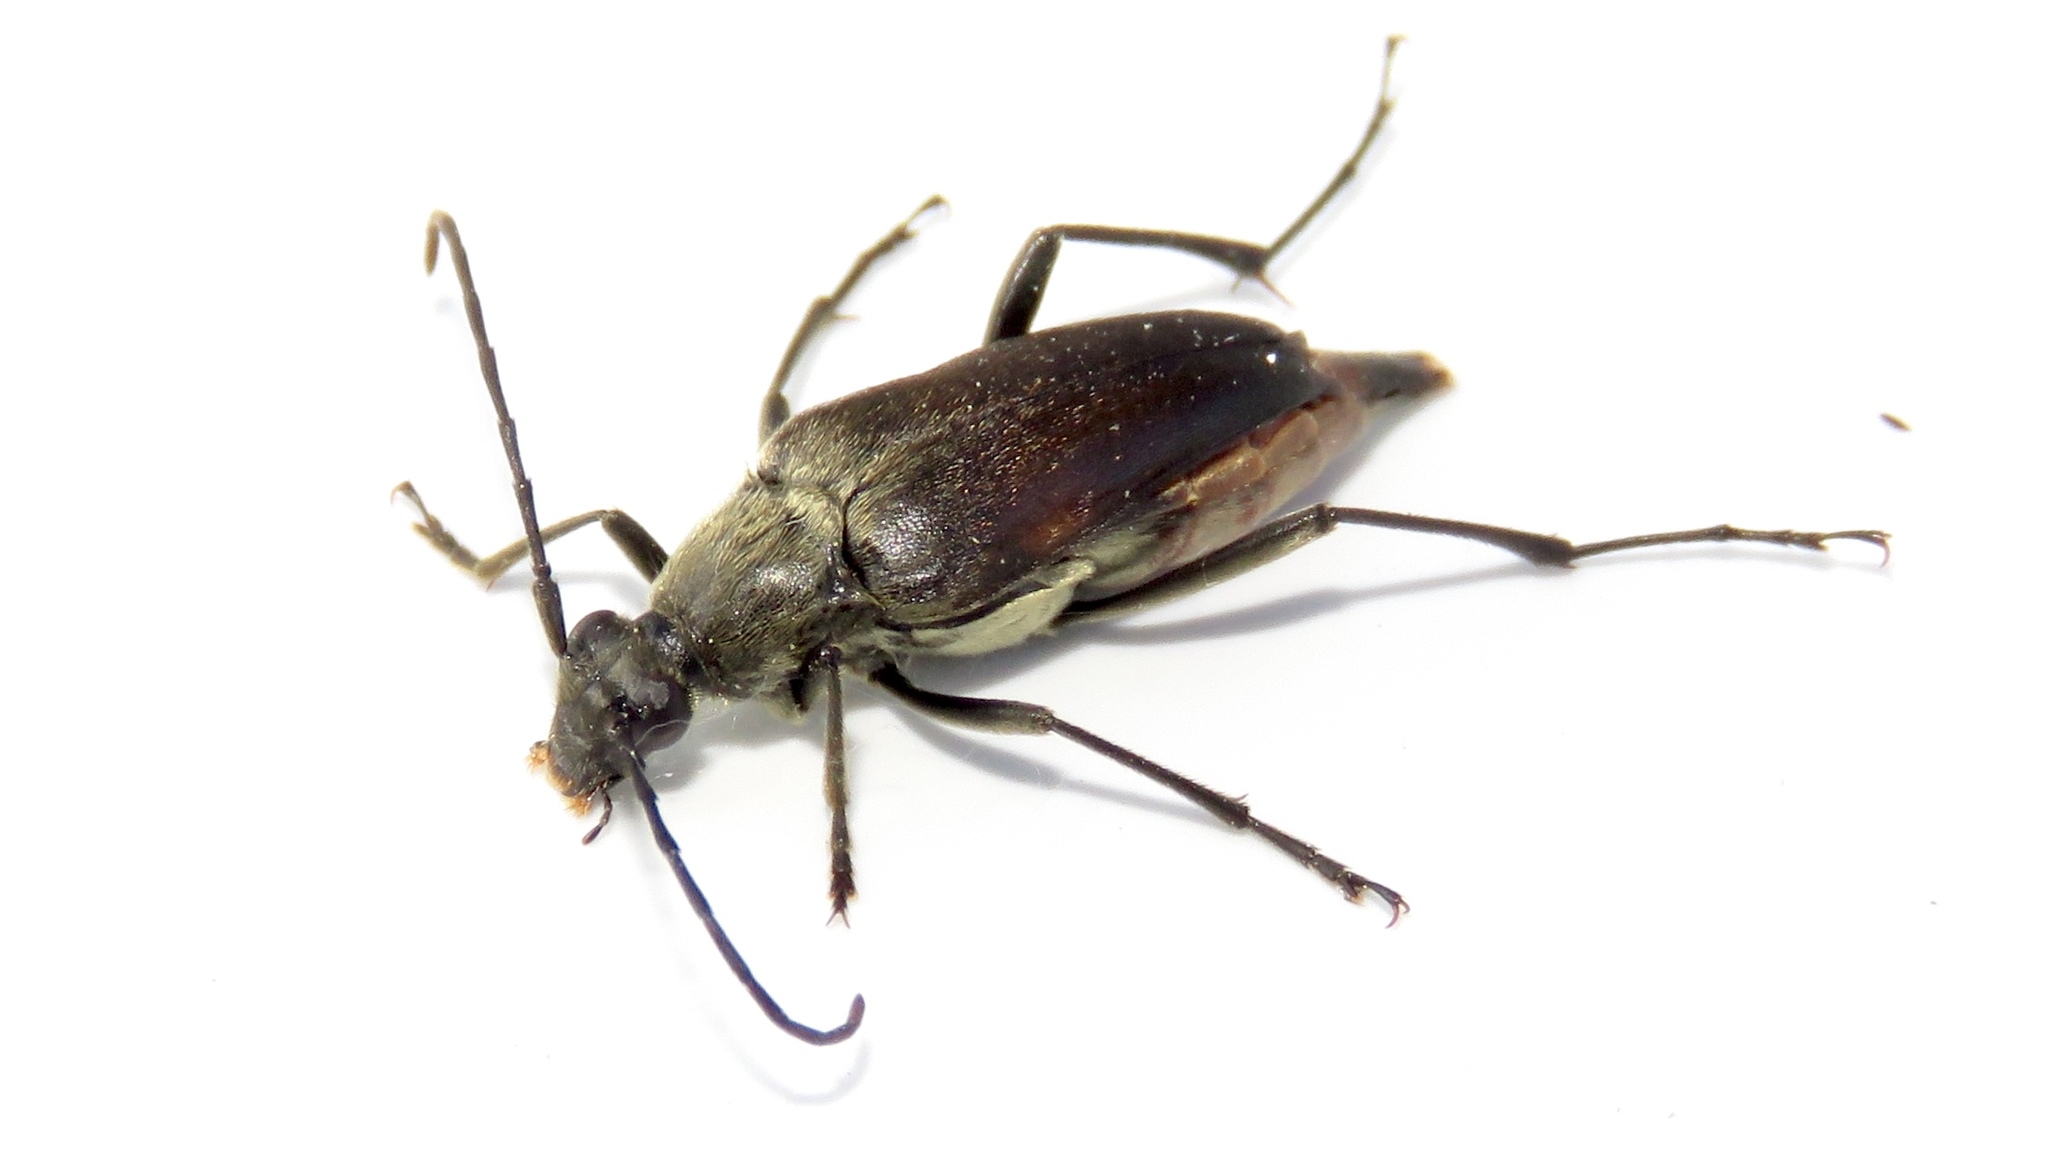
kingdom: Animalia
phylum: Arthropoda
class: Insecta
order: Coleoptera
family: Cerambycidae
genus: Etorofus
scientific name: Etorofus
